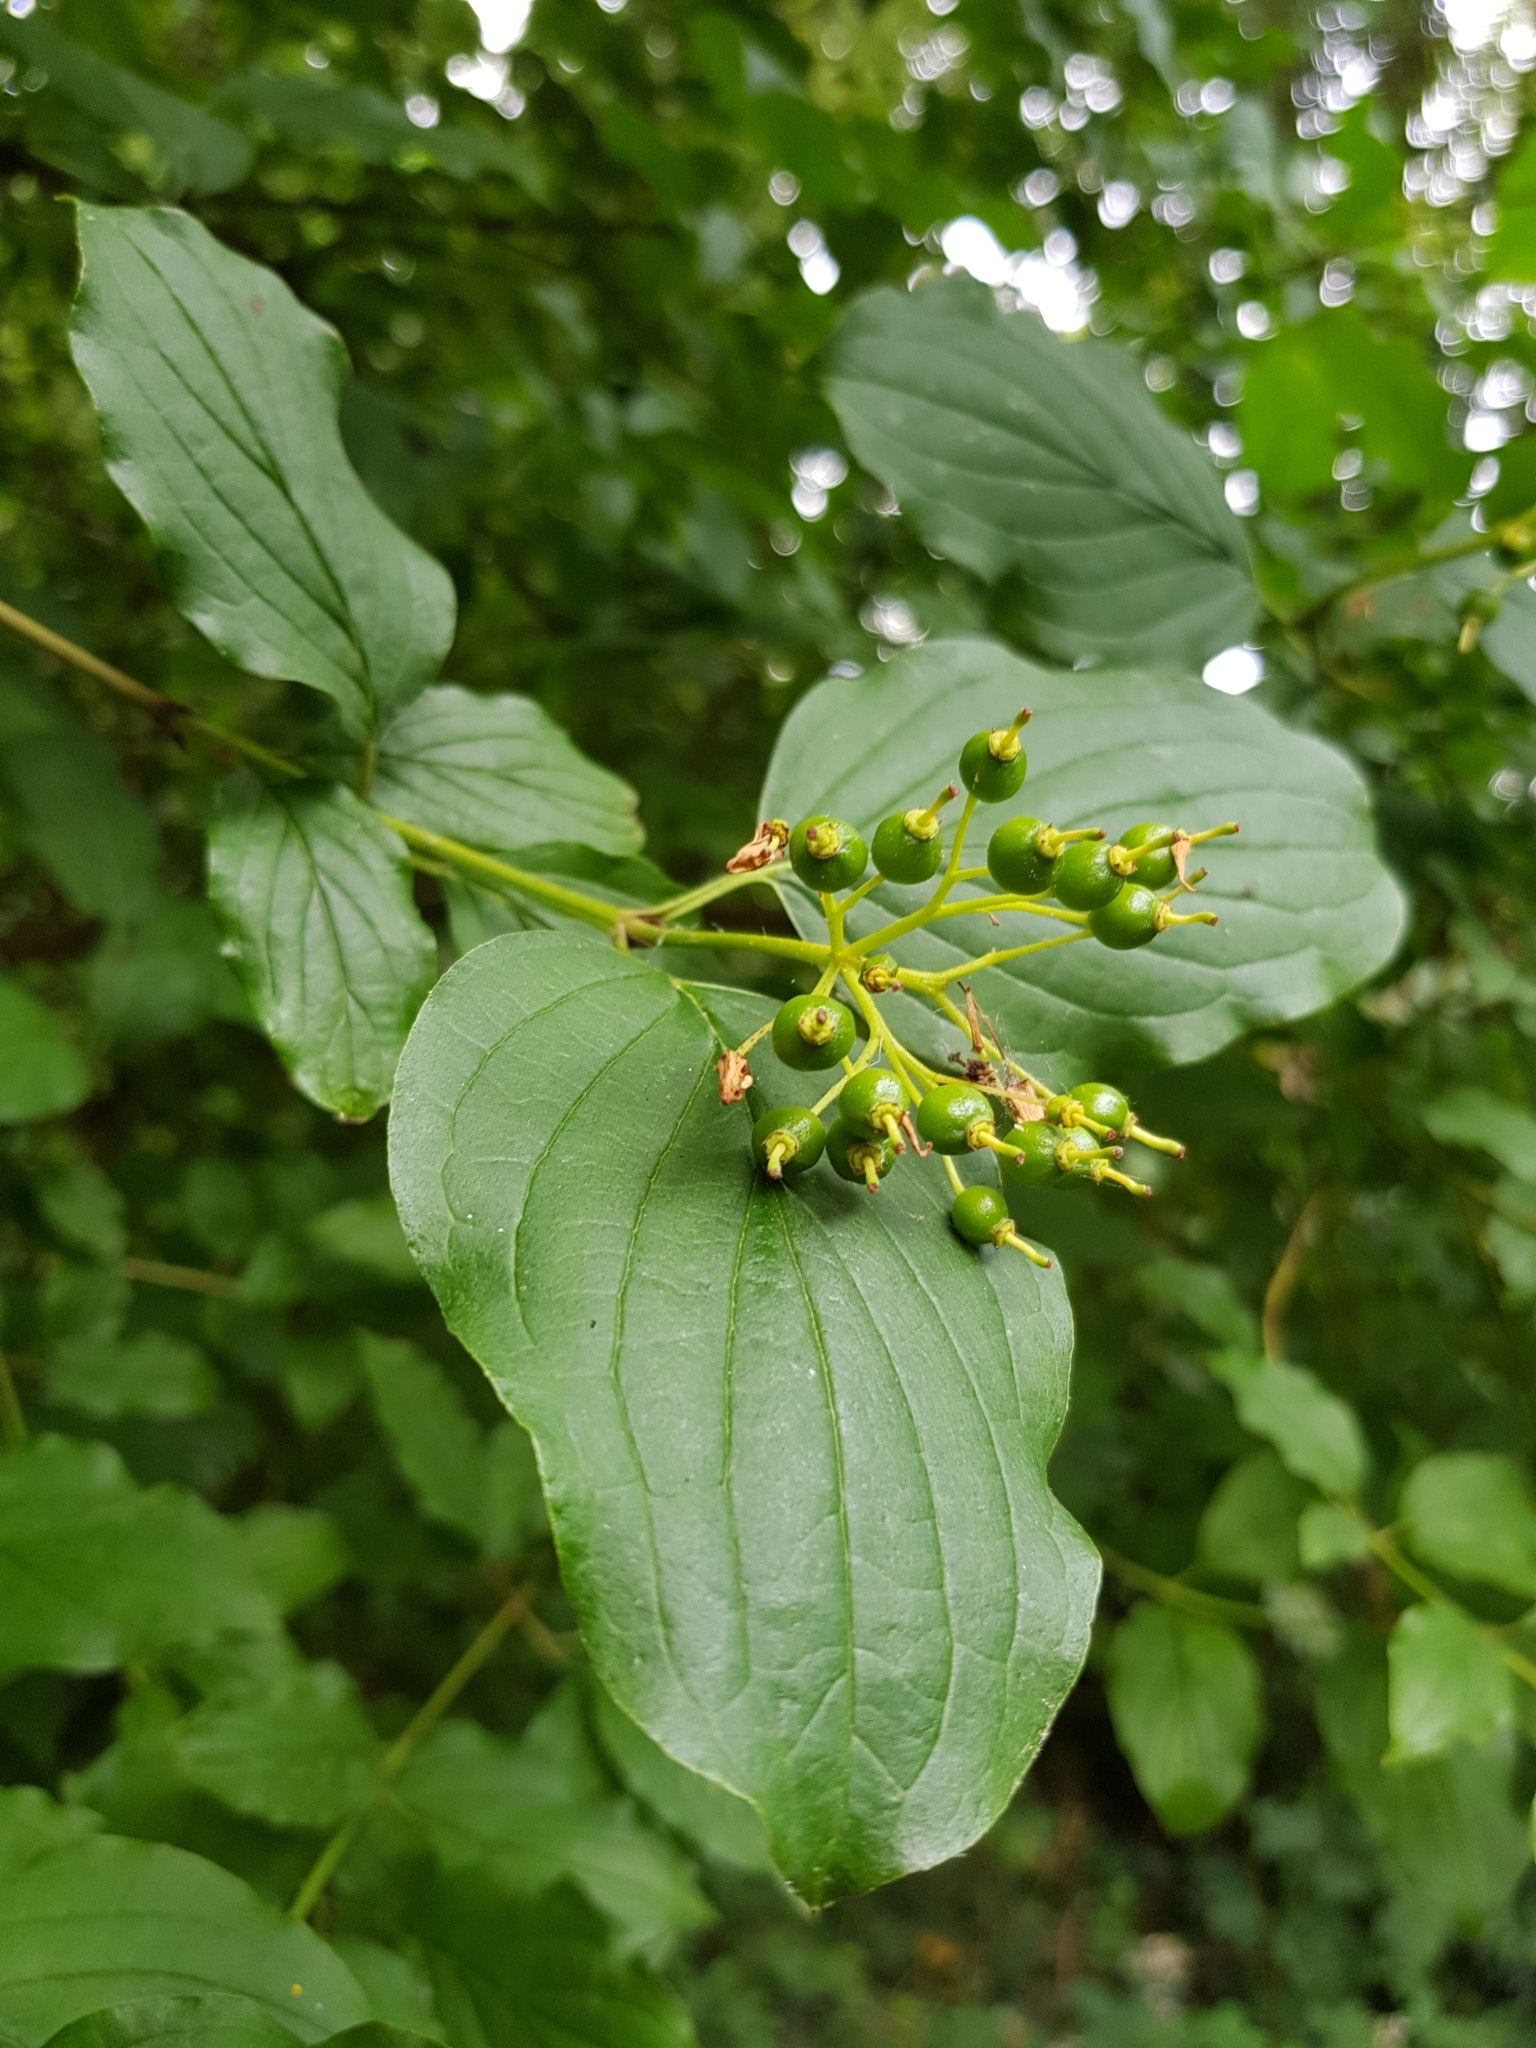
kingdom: Plantae
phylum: Tracheophyta
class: Magnoliopsida
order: Cornales
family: Cornaceae
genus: Cornus
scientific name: Cornus sanguinea
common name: Dogwood
